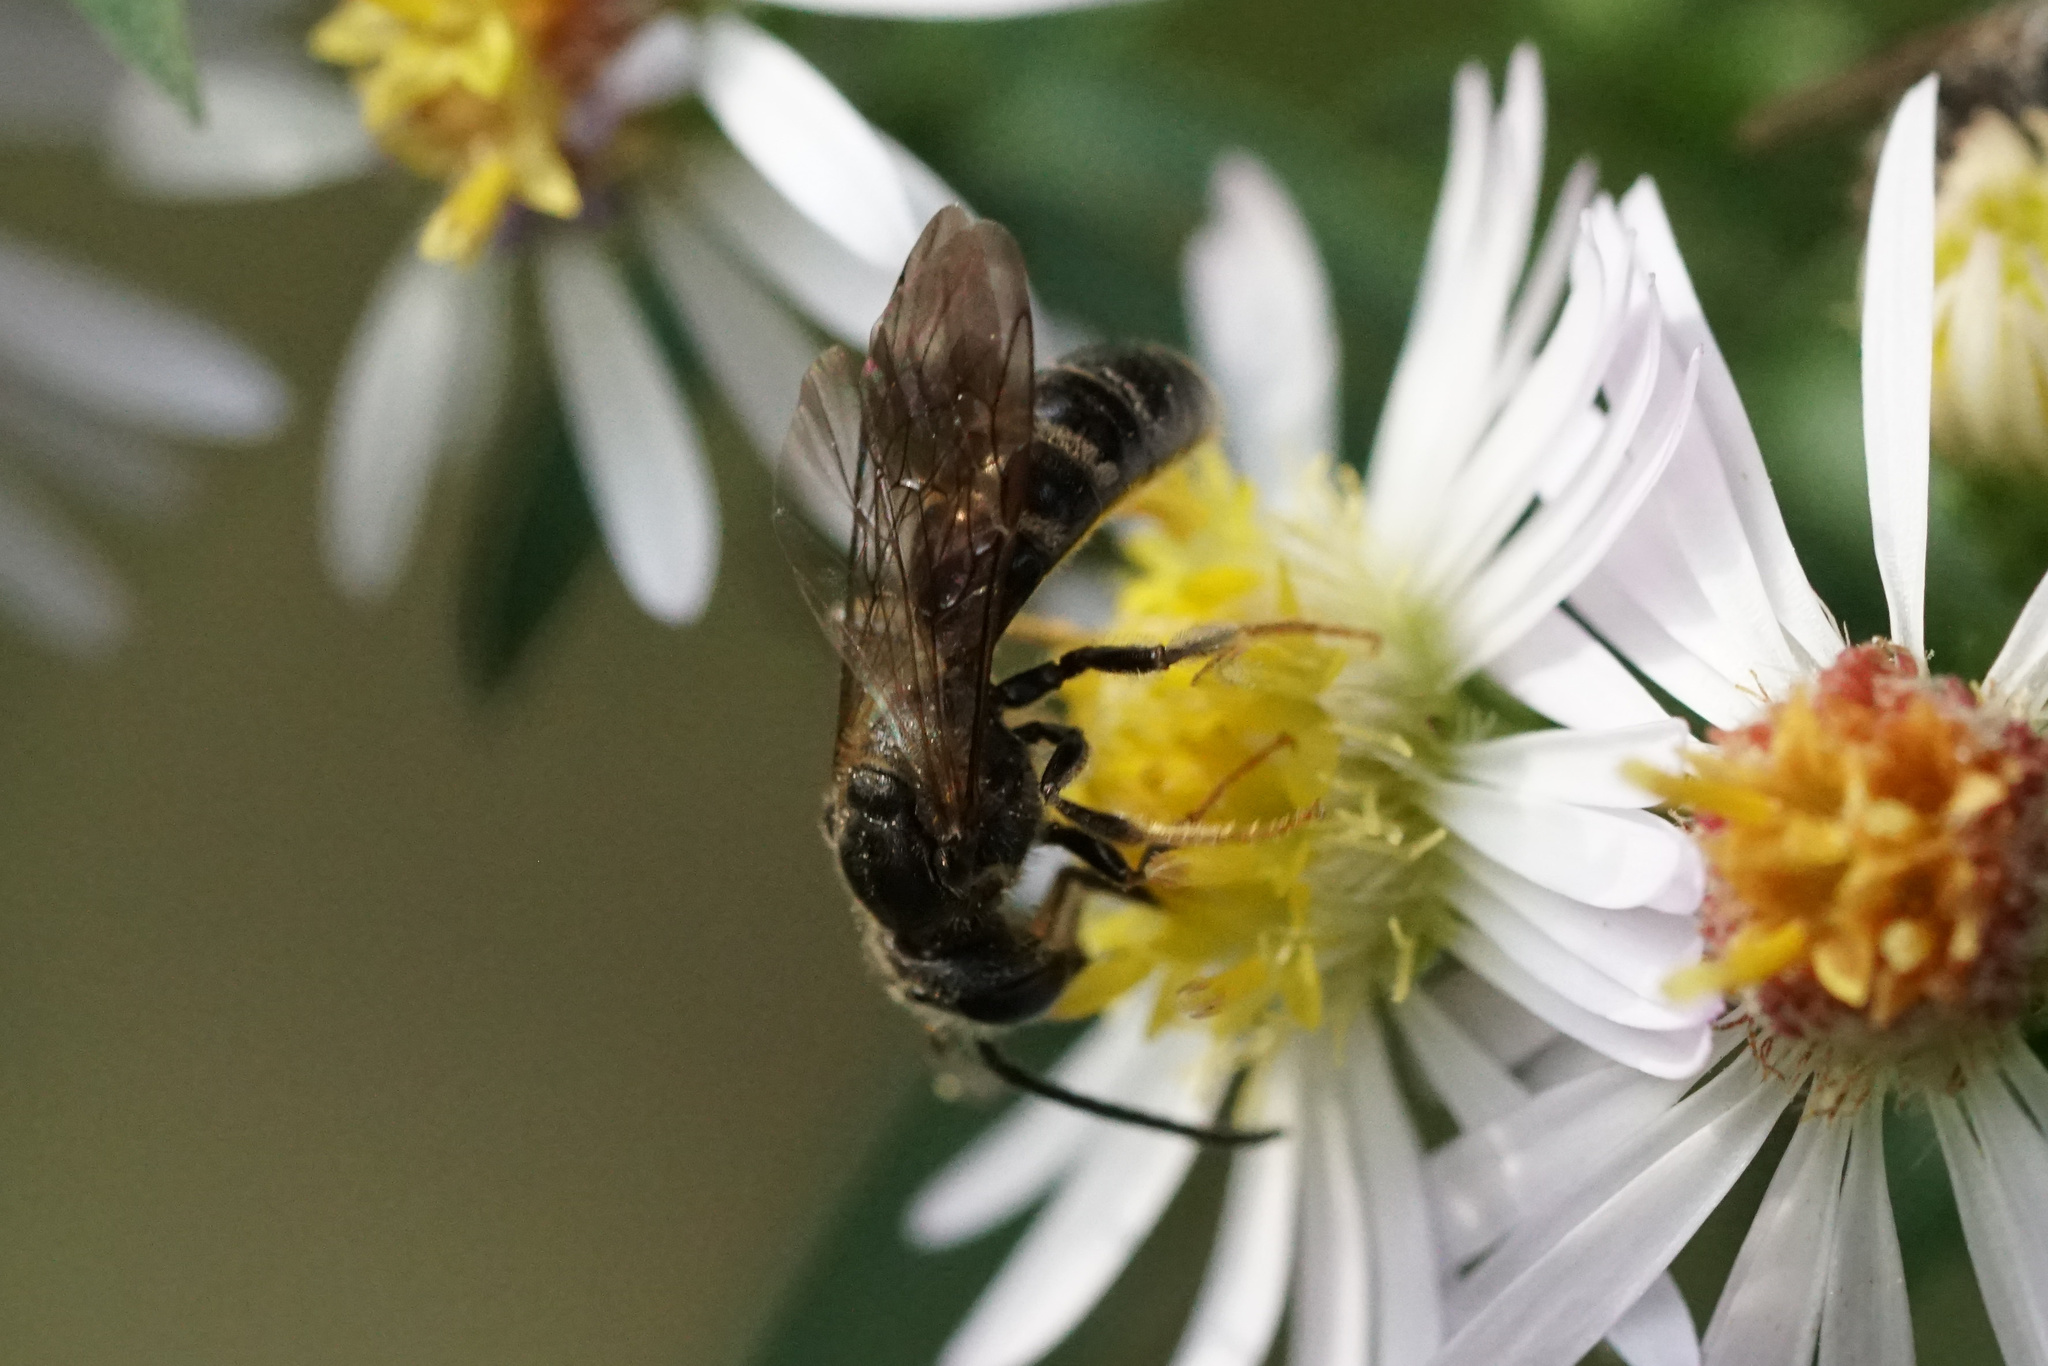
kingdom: Animalia
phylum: Arthropoda
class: Insecta
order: Hymenoptera
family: Halictidae
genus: Lasioglossum
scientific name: Lasioglossum fuscipenne
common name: Brown-winged sweat bee
